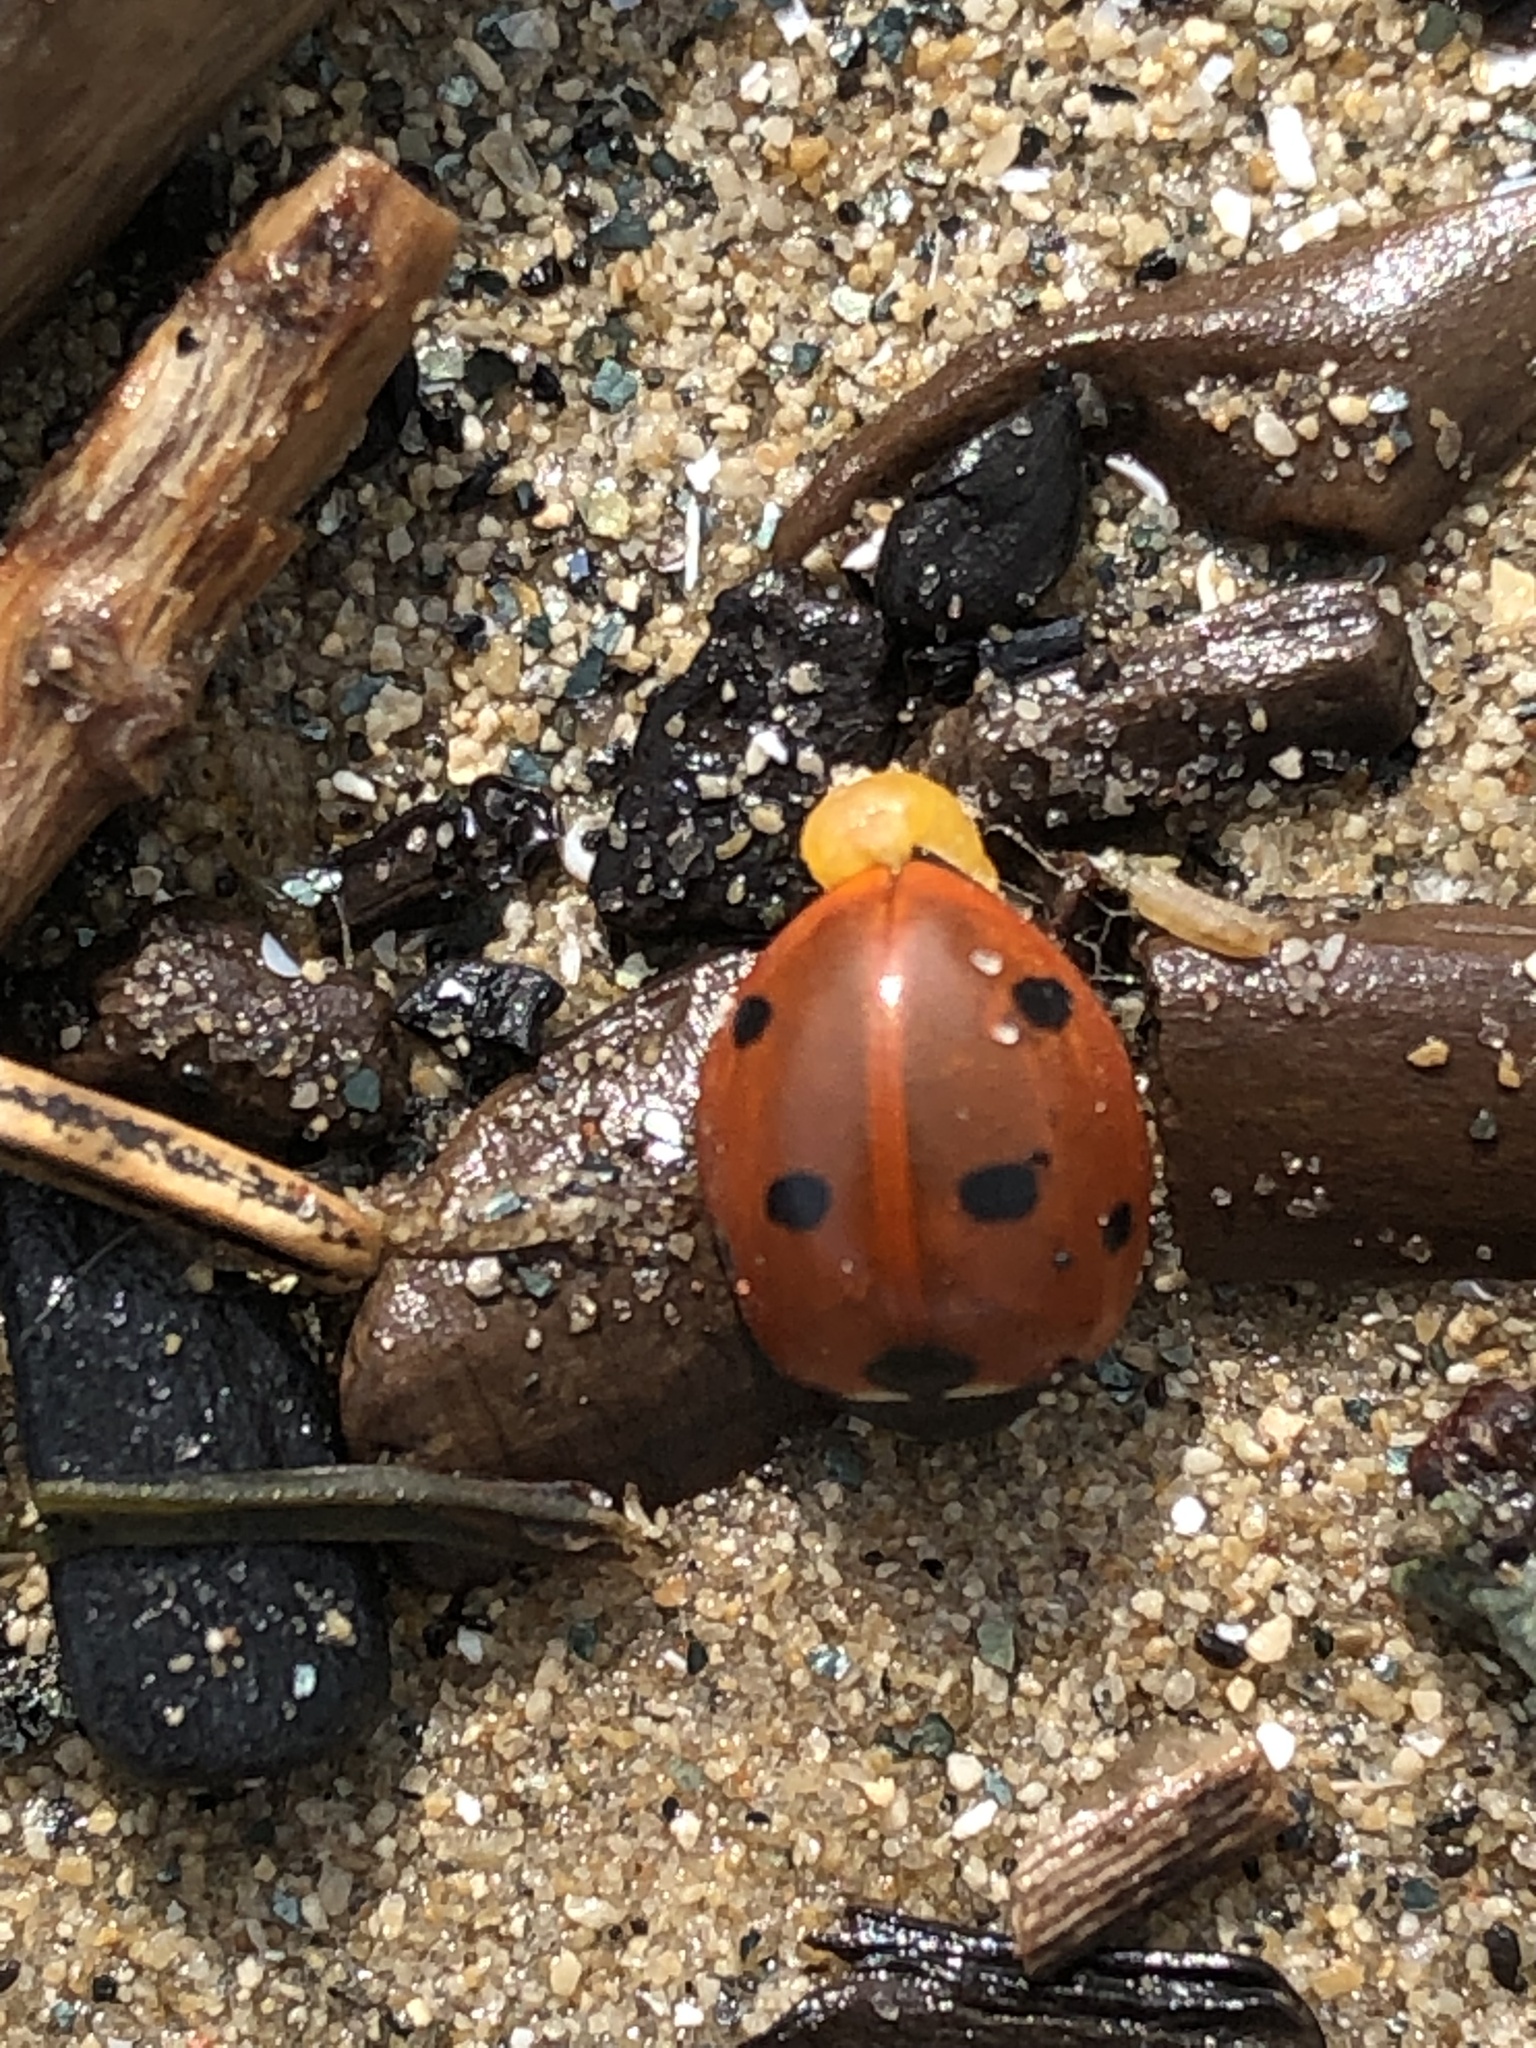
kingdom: Animalia
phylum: Arthropoda
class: Insecta
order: Coleoptera
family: Coccinellidae
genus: Coccinella
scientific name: Coccinella septempunctata
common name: Sevenspotted lady beetle
